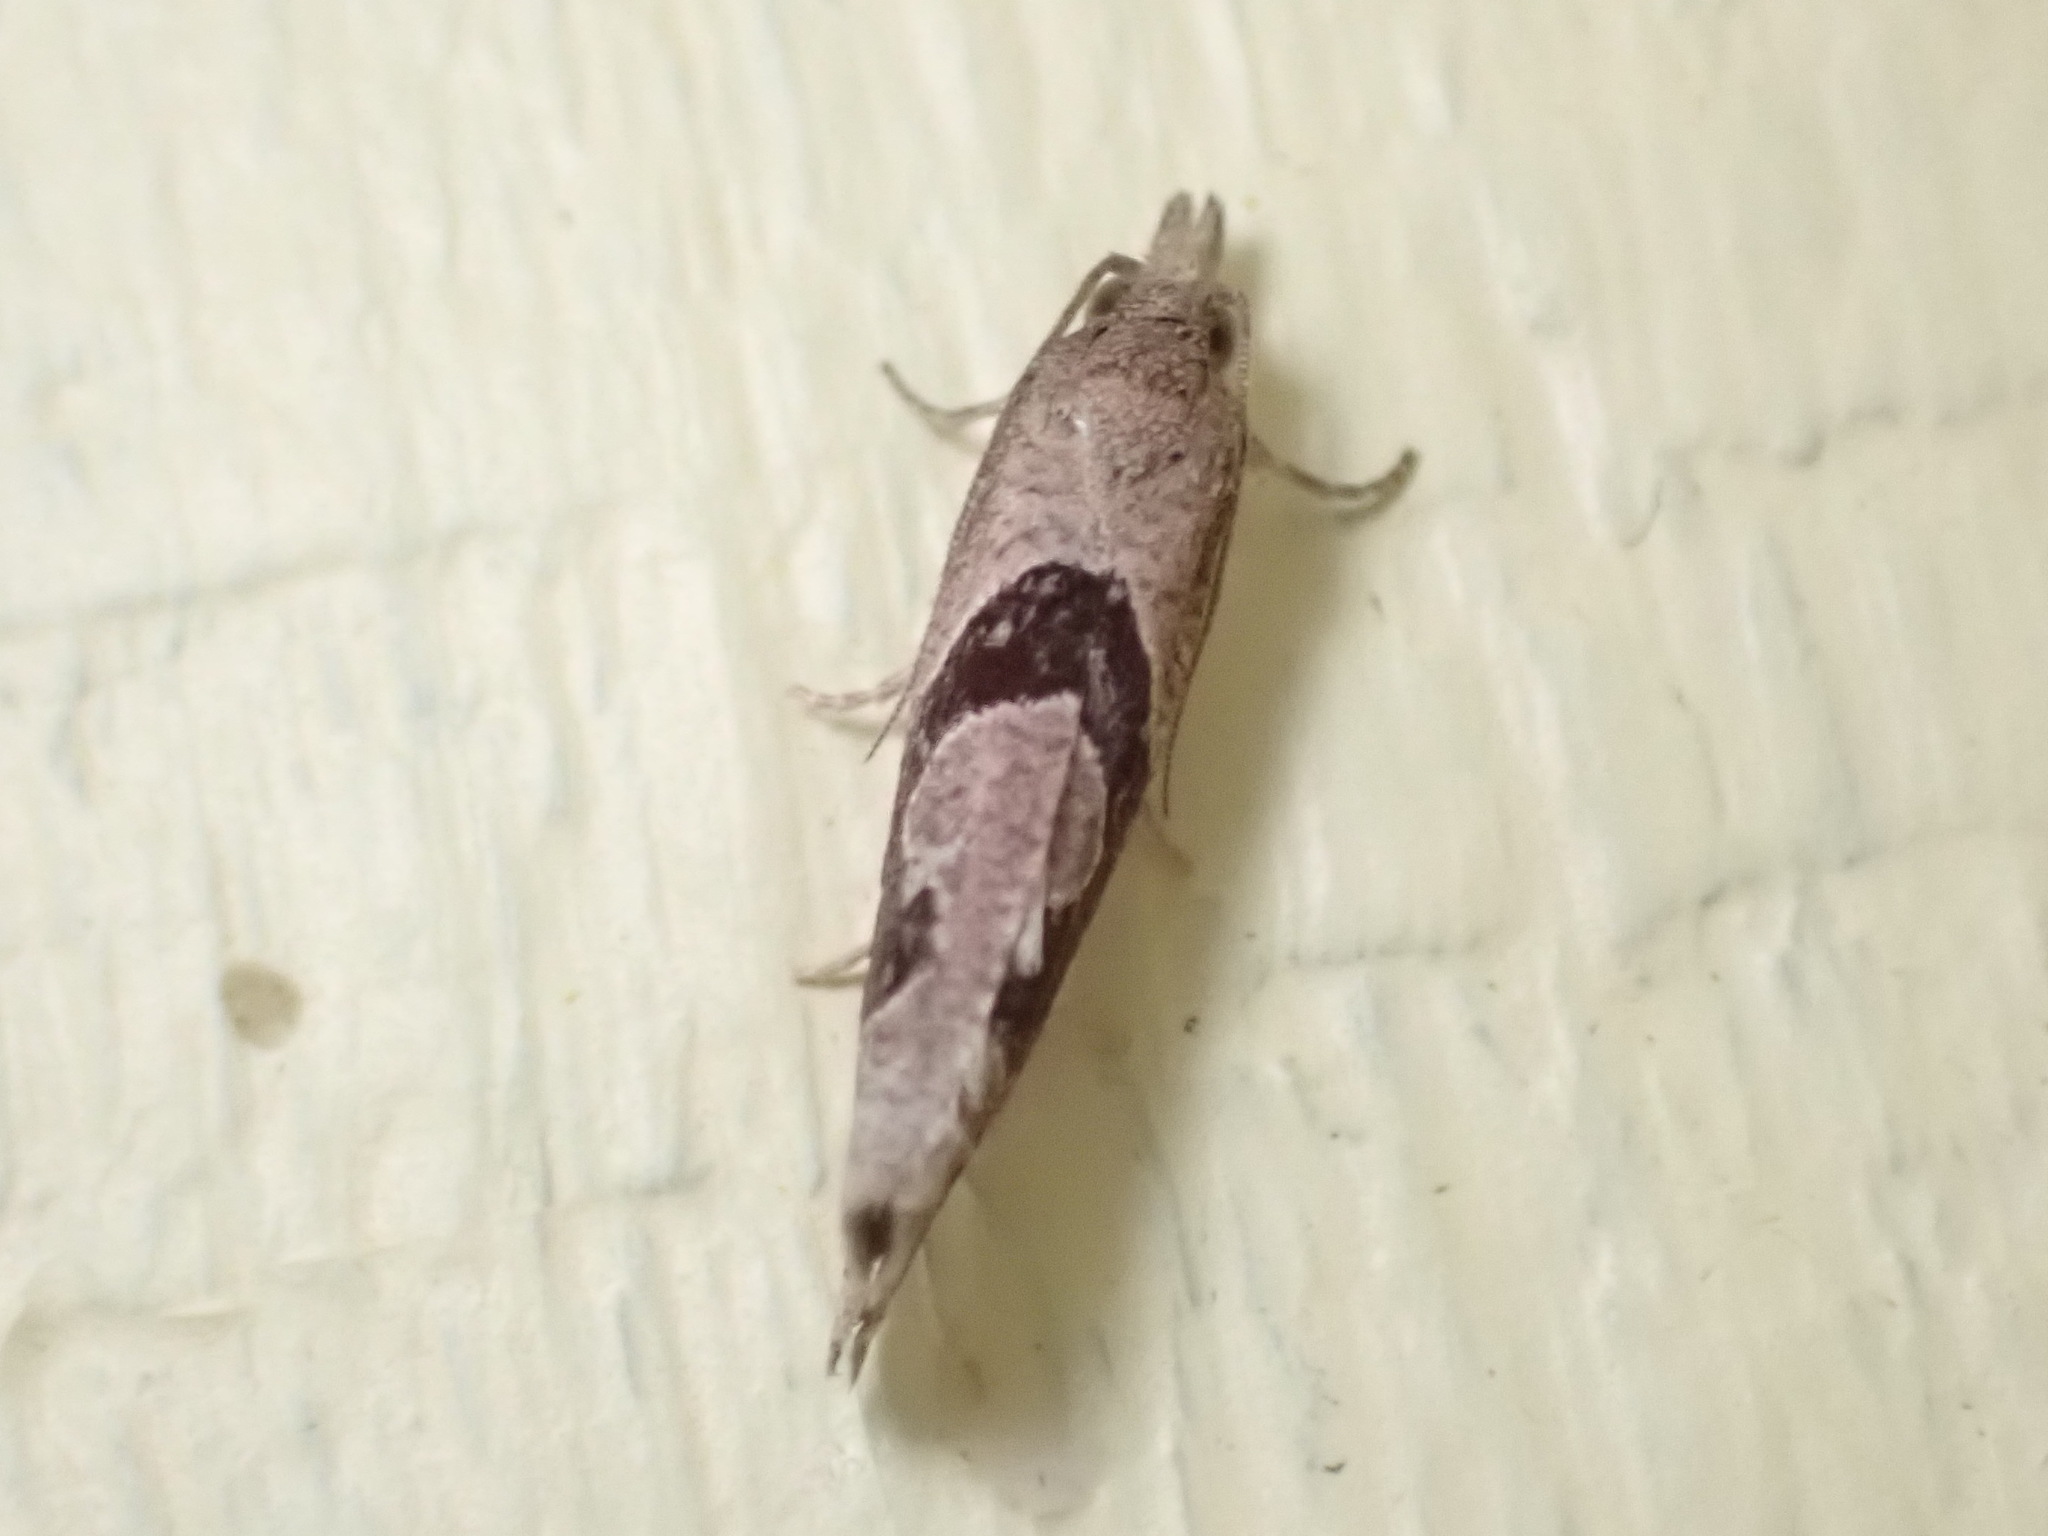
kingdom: Animalia
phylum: Arthropoda
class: Insecta
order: Lepidoptera
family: Tortricidae
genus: Pelochrista
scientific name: Pelochrista similiana
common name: Similar eucosma
